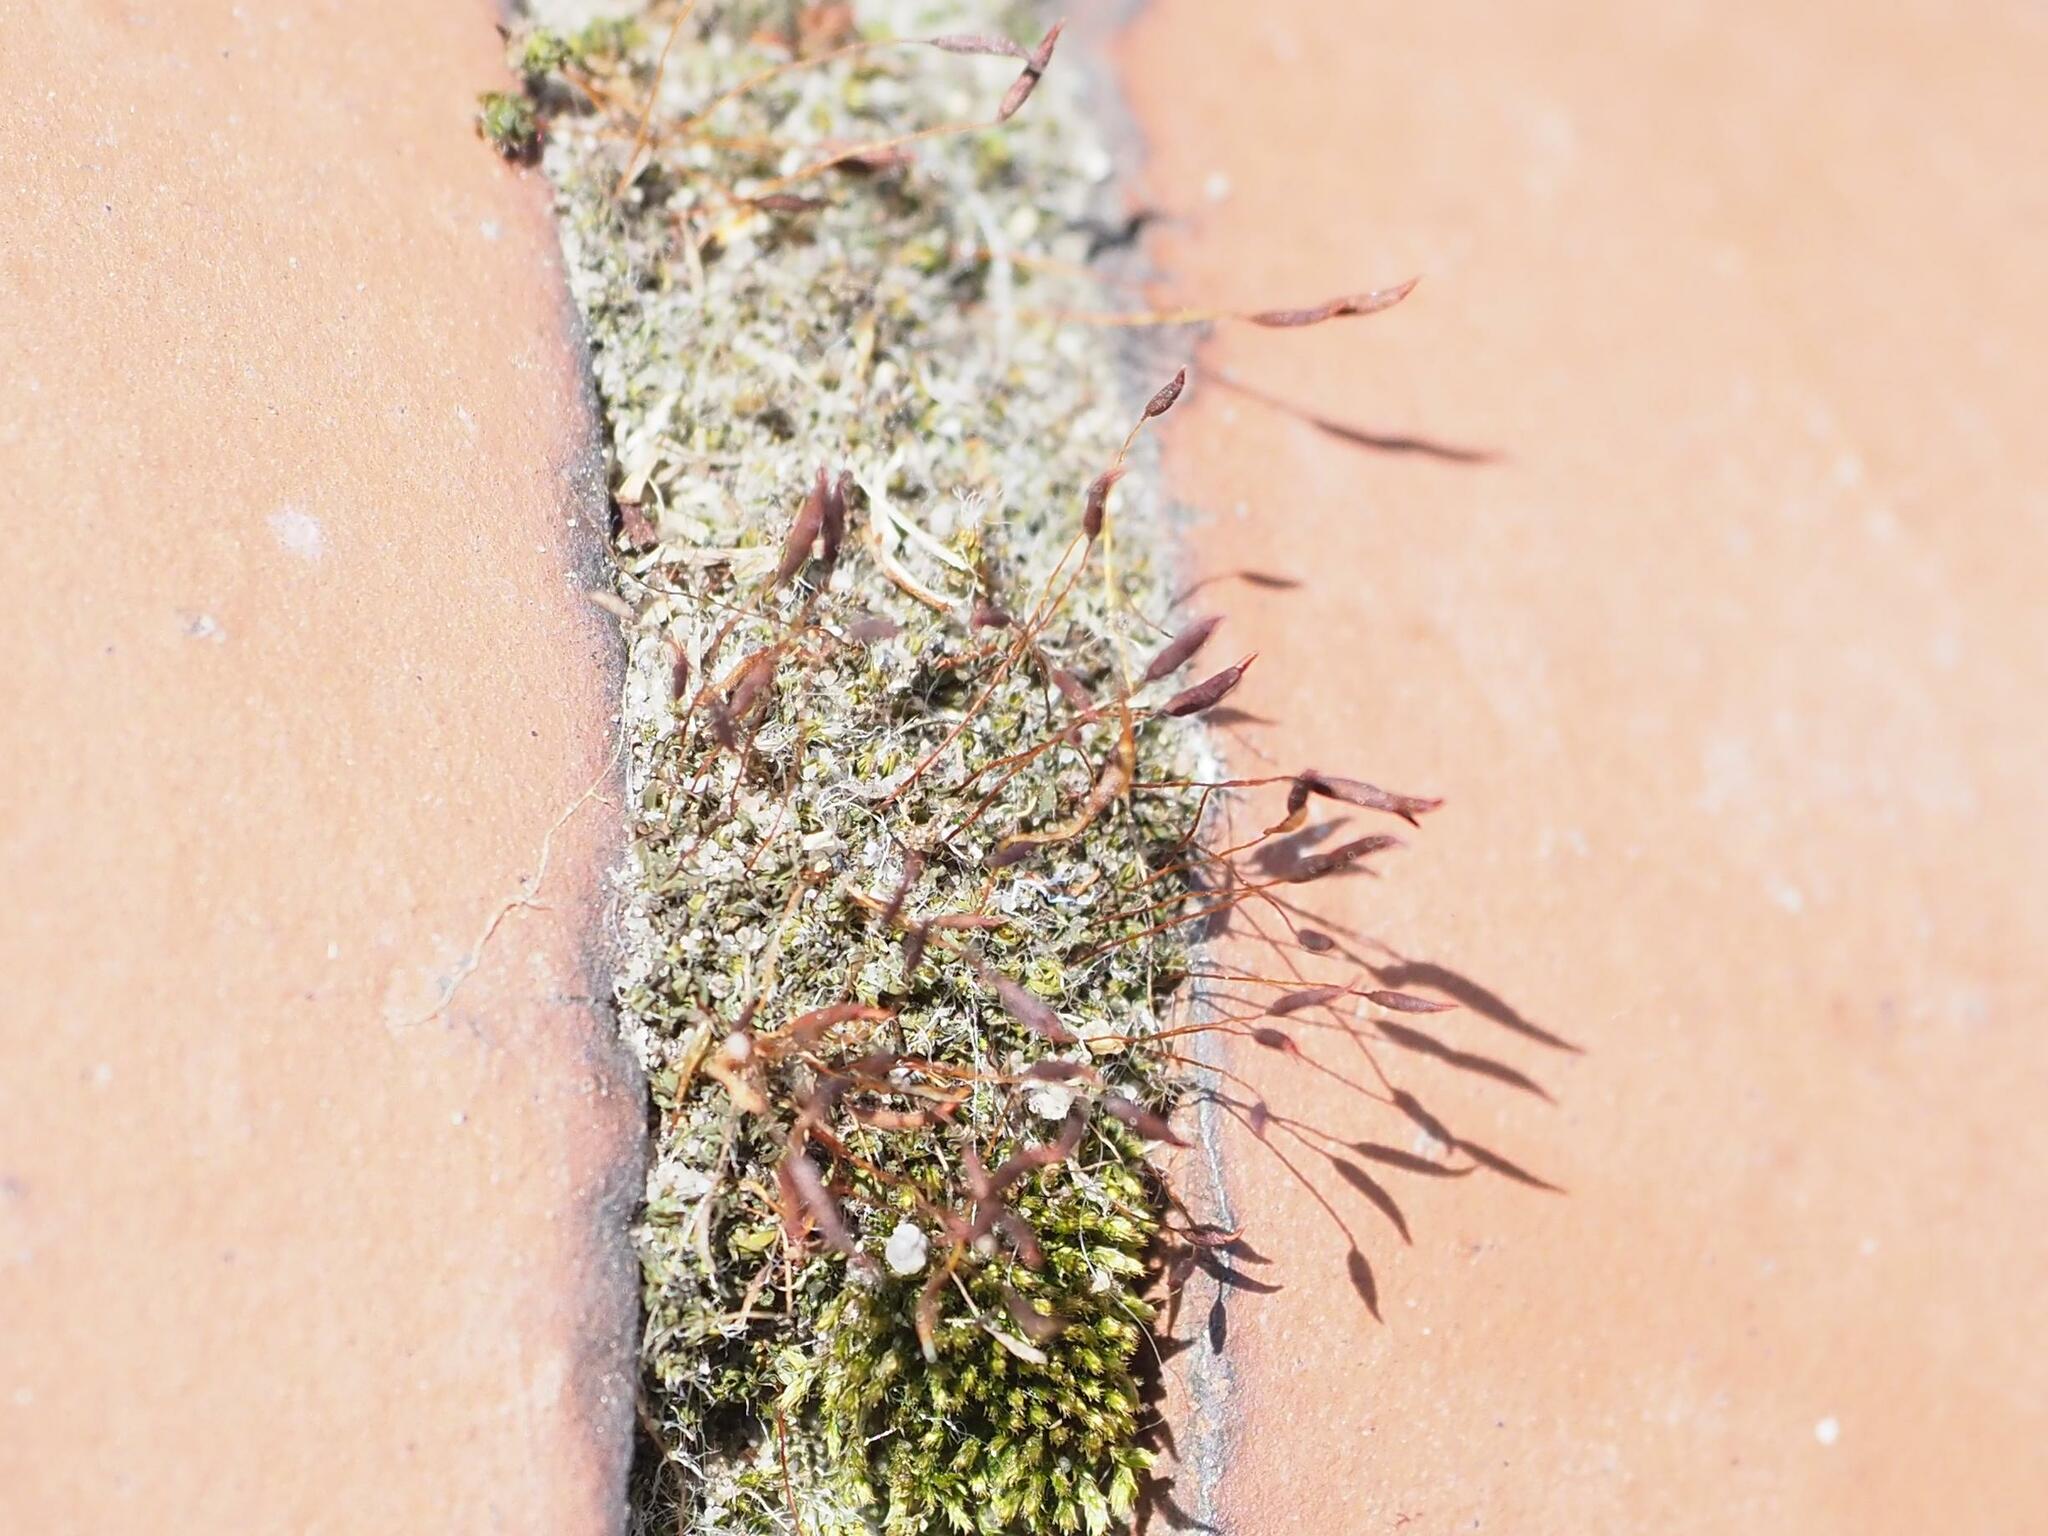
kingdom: Plantae
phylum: Bryophyta
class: Bryopsida
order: Pottiales
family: Pottiaceae
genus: Tortula
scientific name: Tortula muralis
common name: Wall screw-moss
